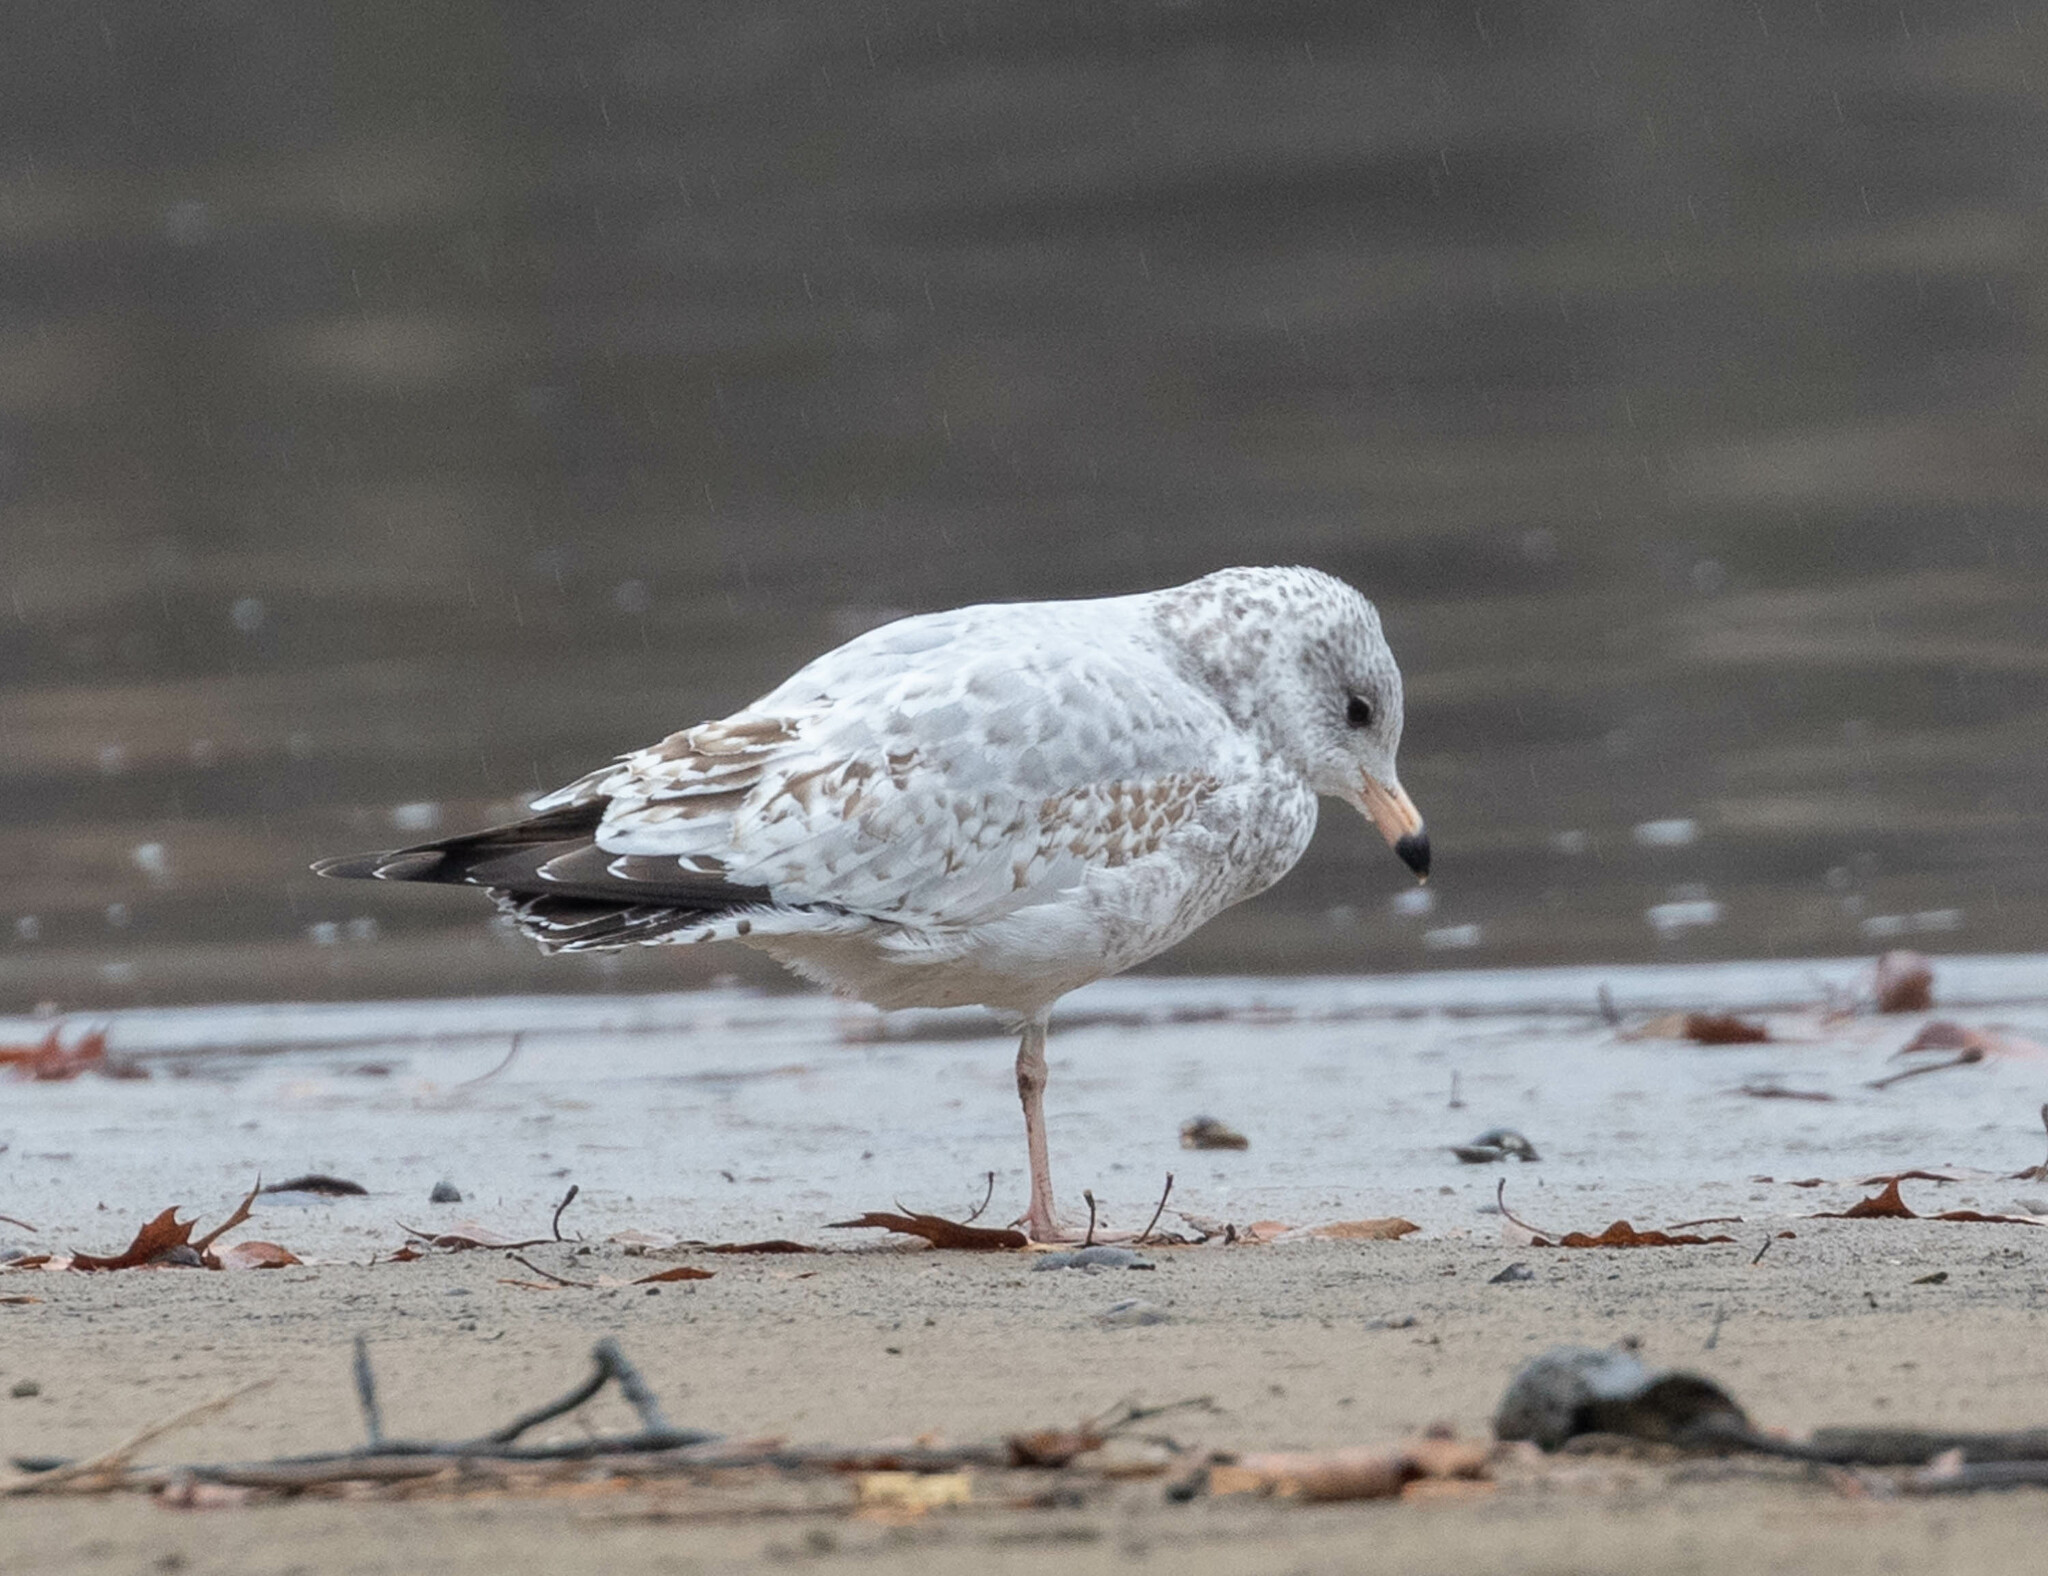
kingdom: Animalia
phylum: Chordata
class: Aves
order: Charadriiformes
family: Laridae
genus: Larus
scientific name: Larus delawarensis
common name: Ring-billed gull
